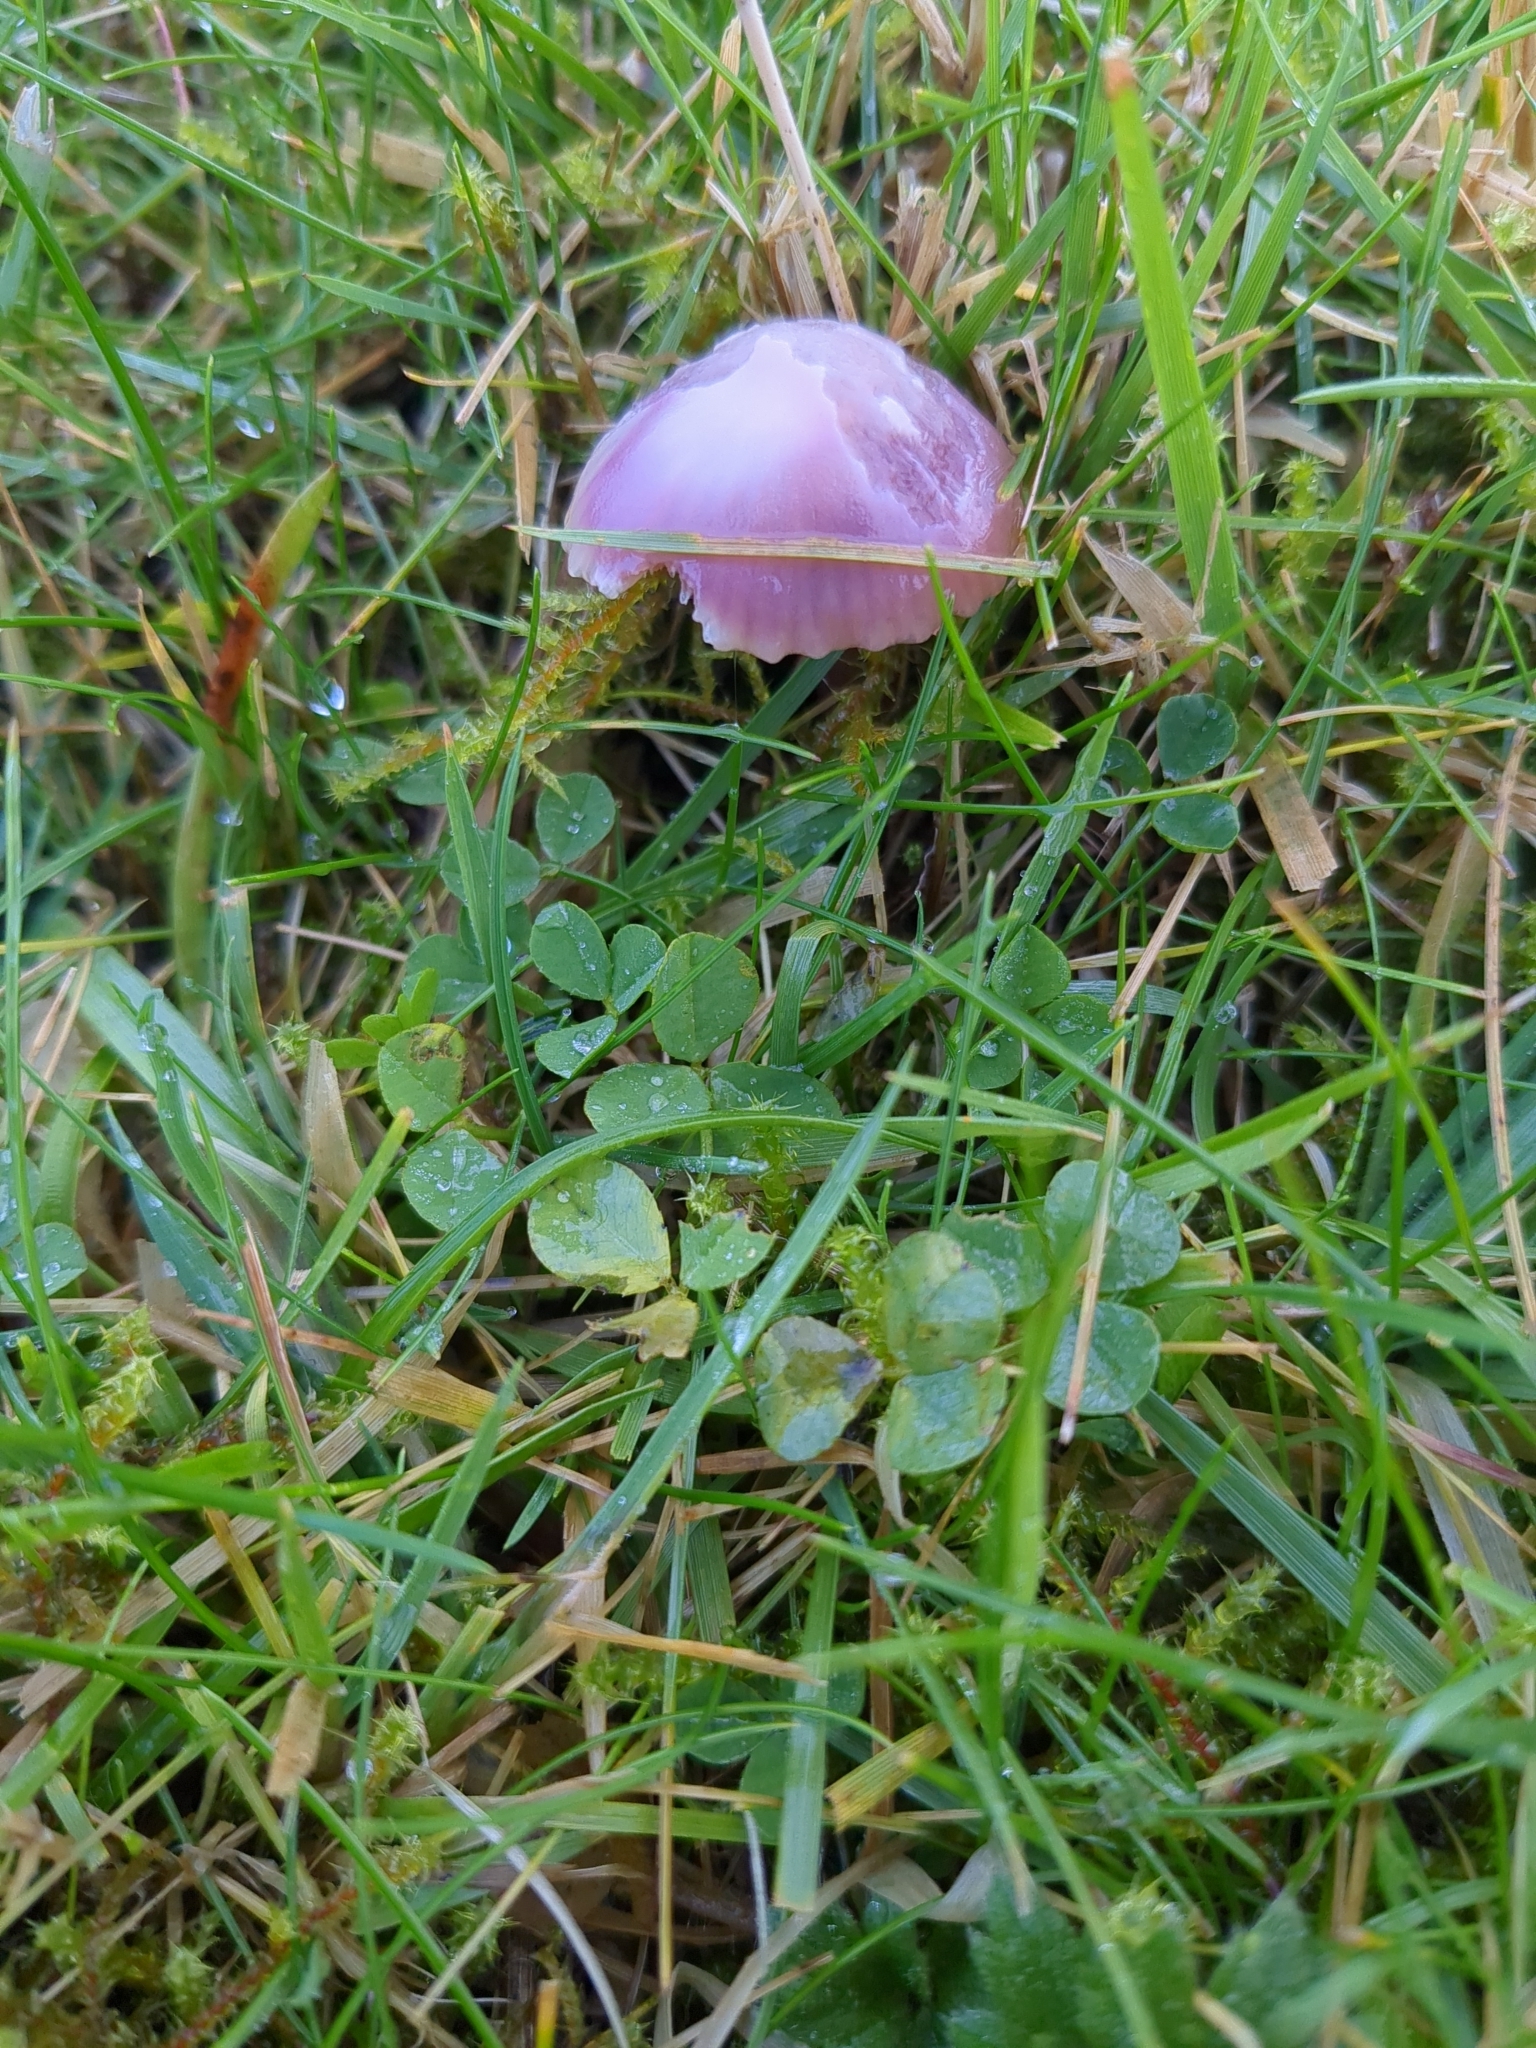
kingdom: Fungi
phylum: Basidiomycota
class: Agaricomycetes
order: Agaricales
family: Hygrophoraceae
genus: Gliophorus
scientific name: Gliophorus reginae
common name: Jubilee waxcap
